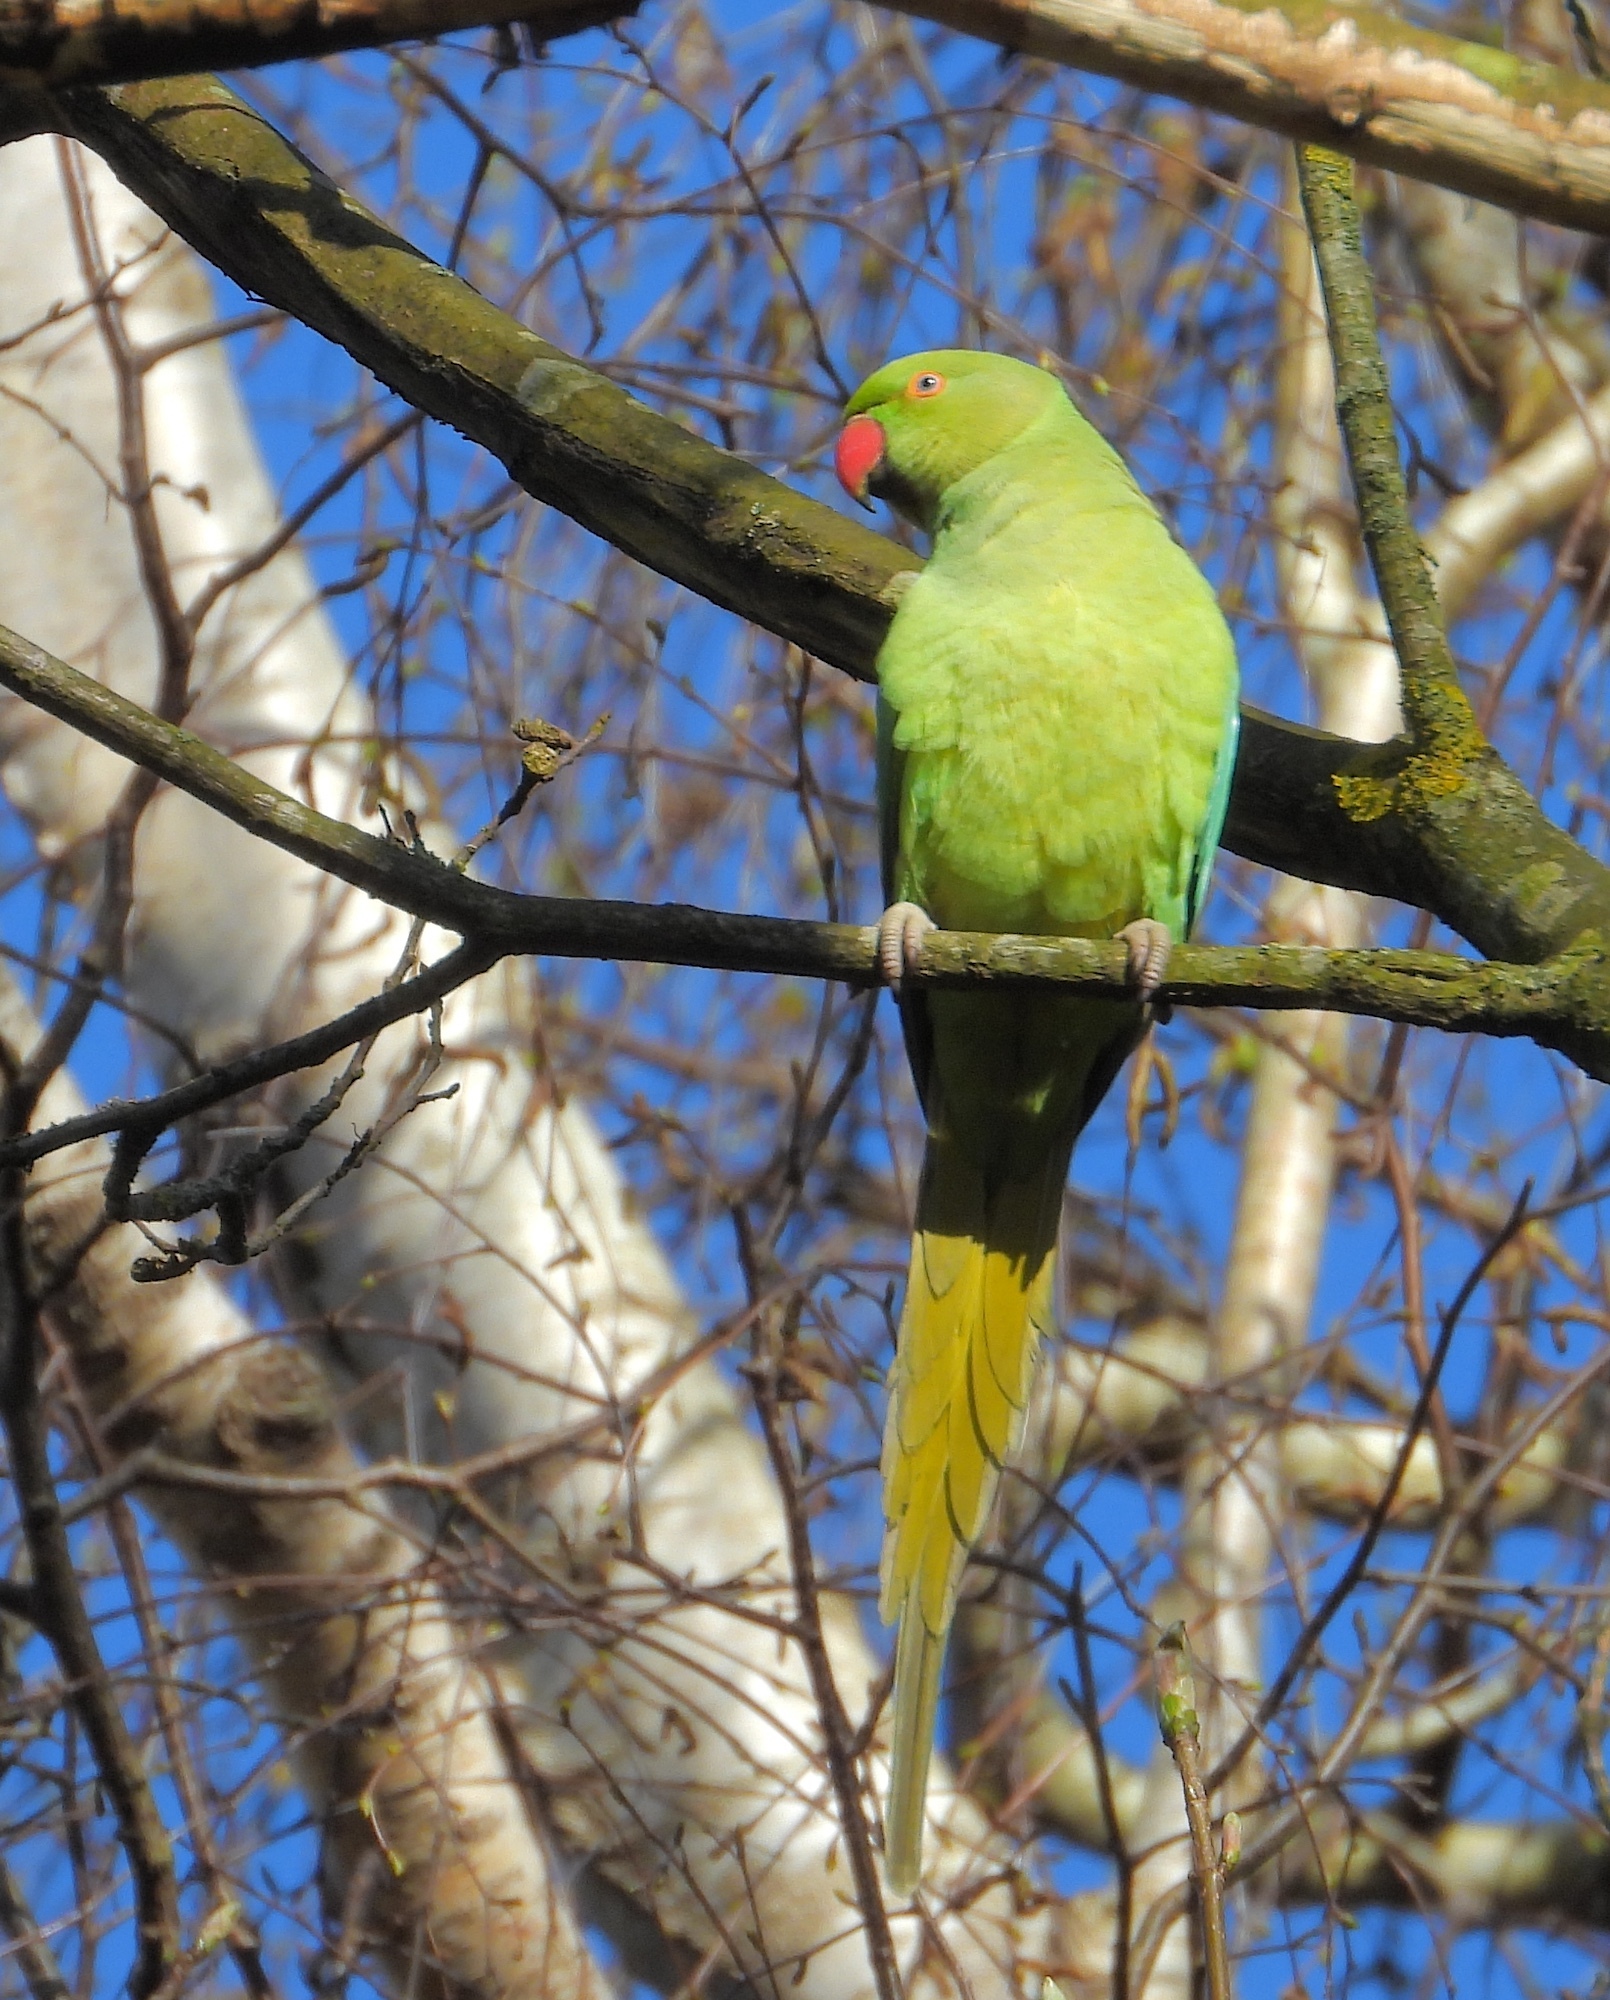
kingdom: Animalia
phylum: Chordata
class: Aves
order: Psittaciformes
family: Psittacidae
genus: Psittacula
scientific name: Psittacula krameri
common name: Rose-ringed parakeet
